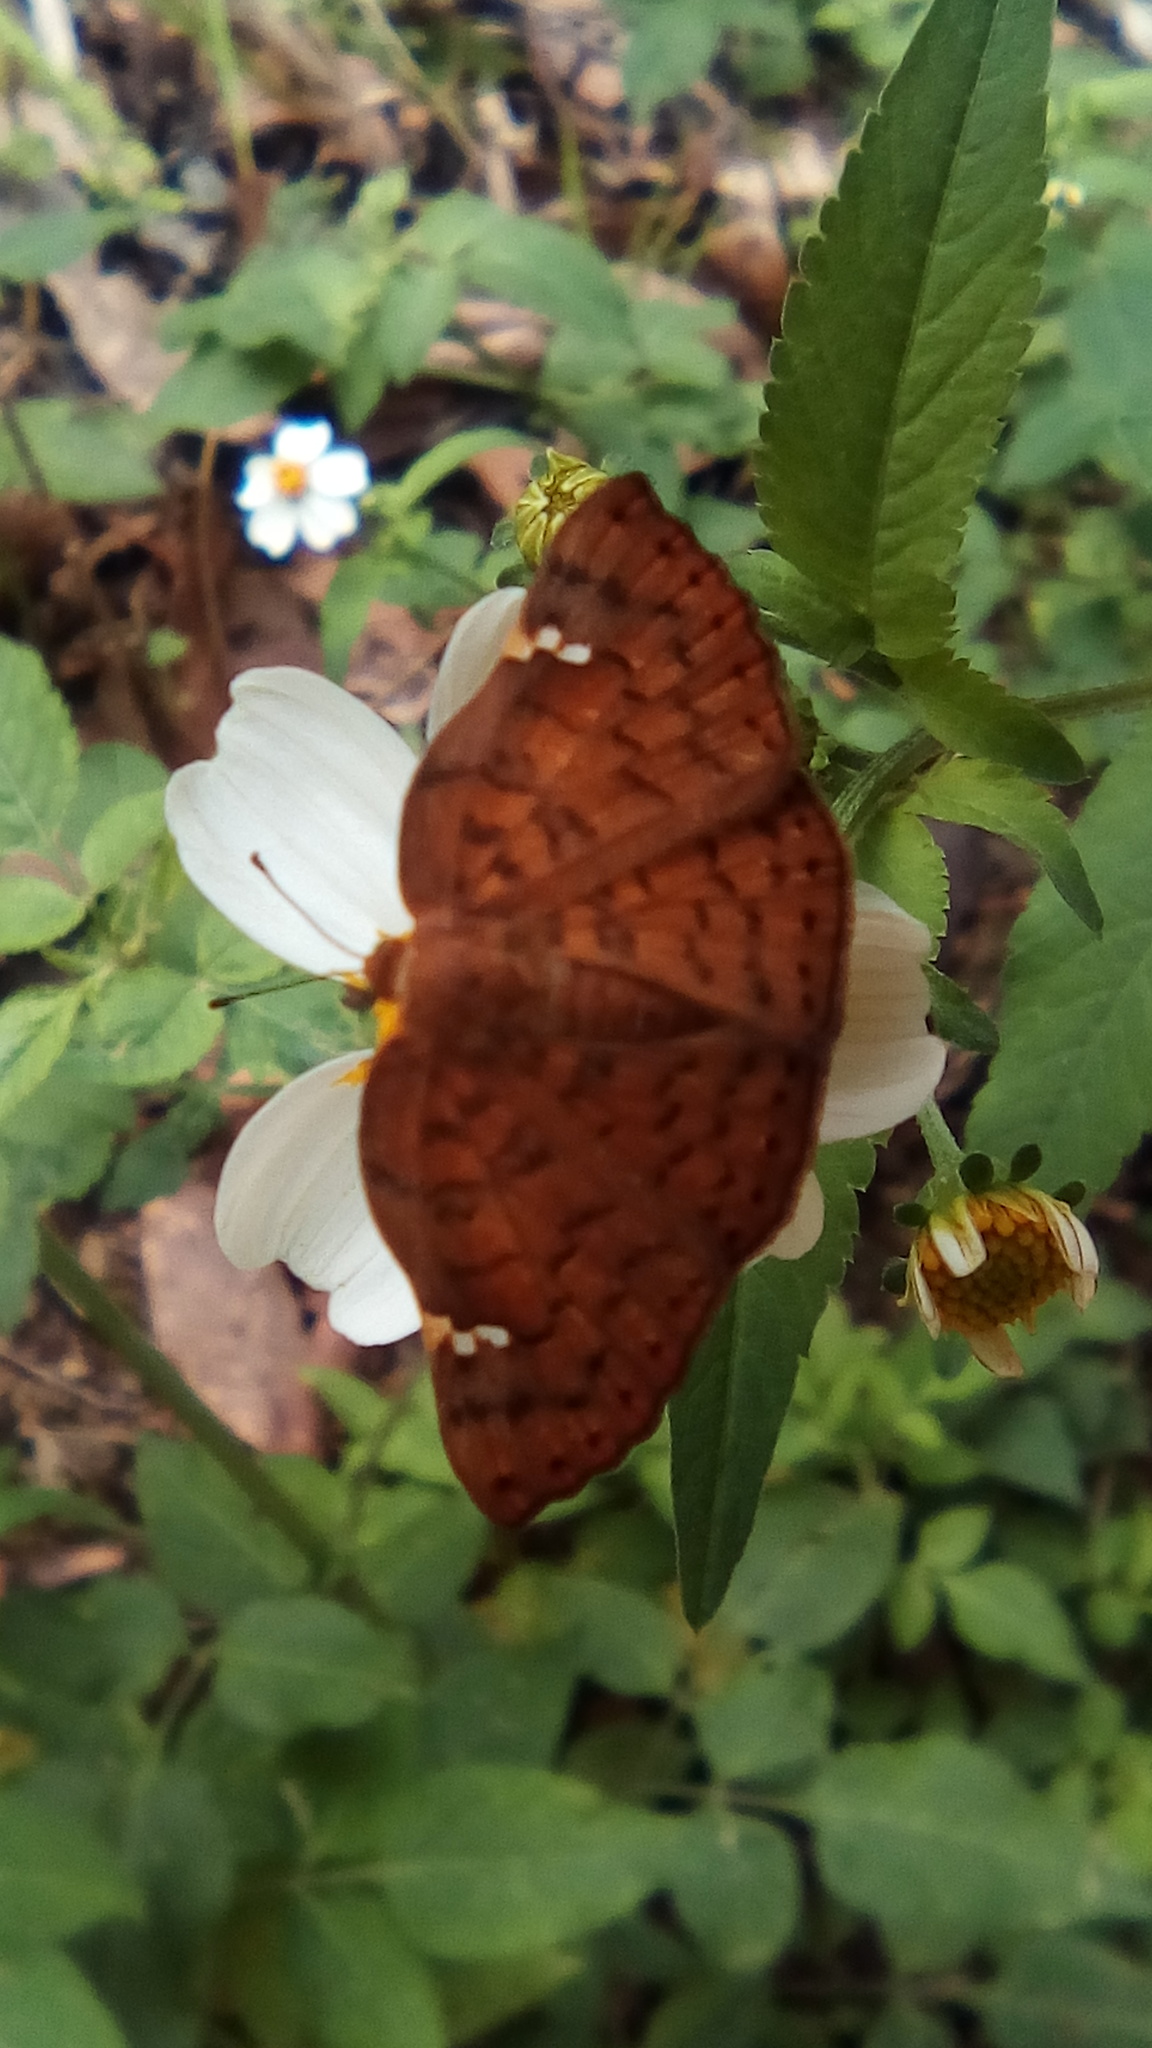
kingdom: Animalia
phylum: Arthropoda
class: Insecta
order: Lepidoptera
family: Riodinidae
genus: Curvie
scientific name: Curvie emesia
